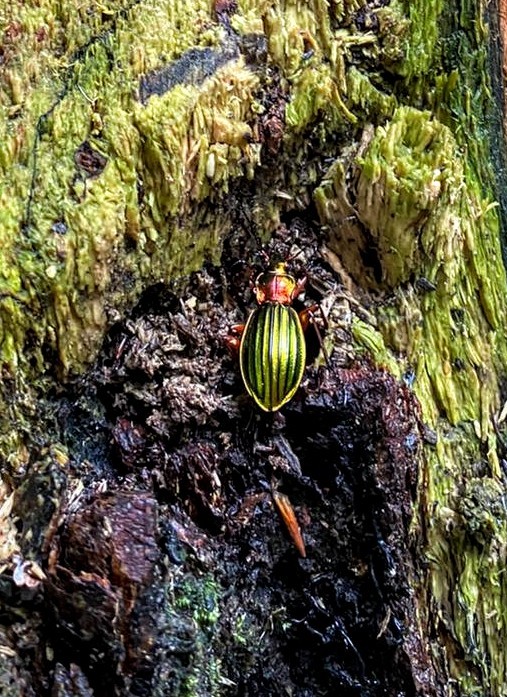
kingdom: Animalia
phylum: Arthropoda
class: Insecta
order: Coleoptera
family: Carabidae
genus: Carabus
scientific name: Carabus auronitens
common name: Carabus auronitens
